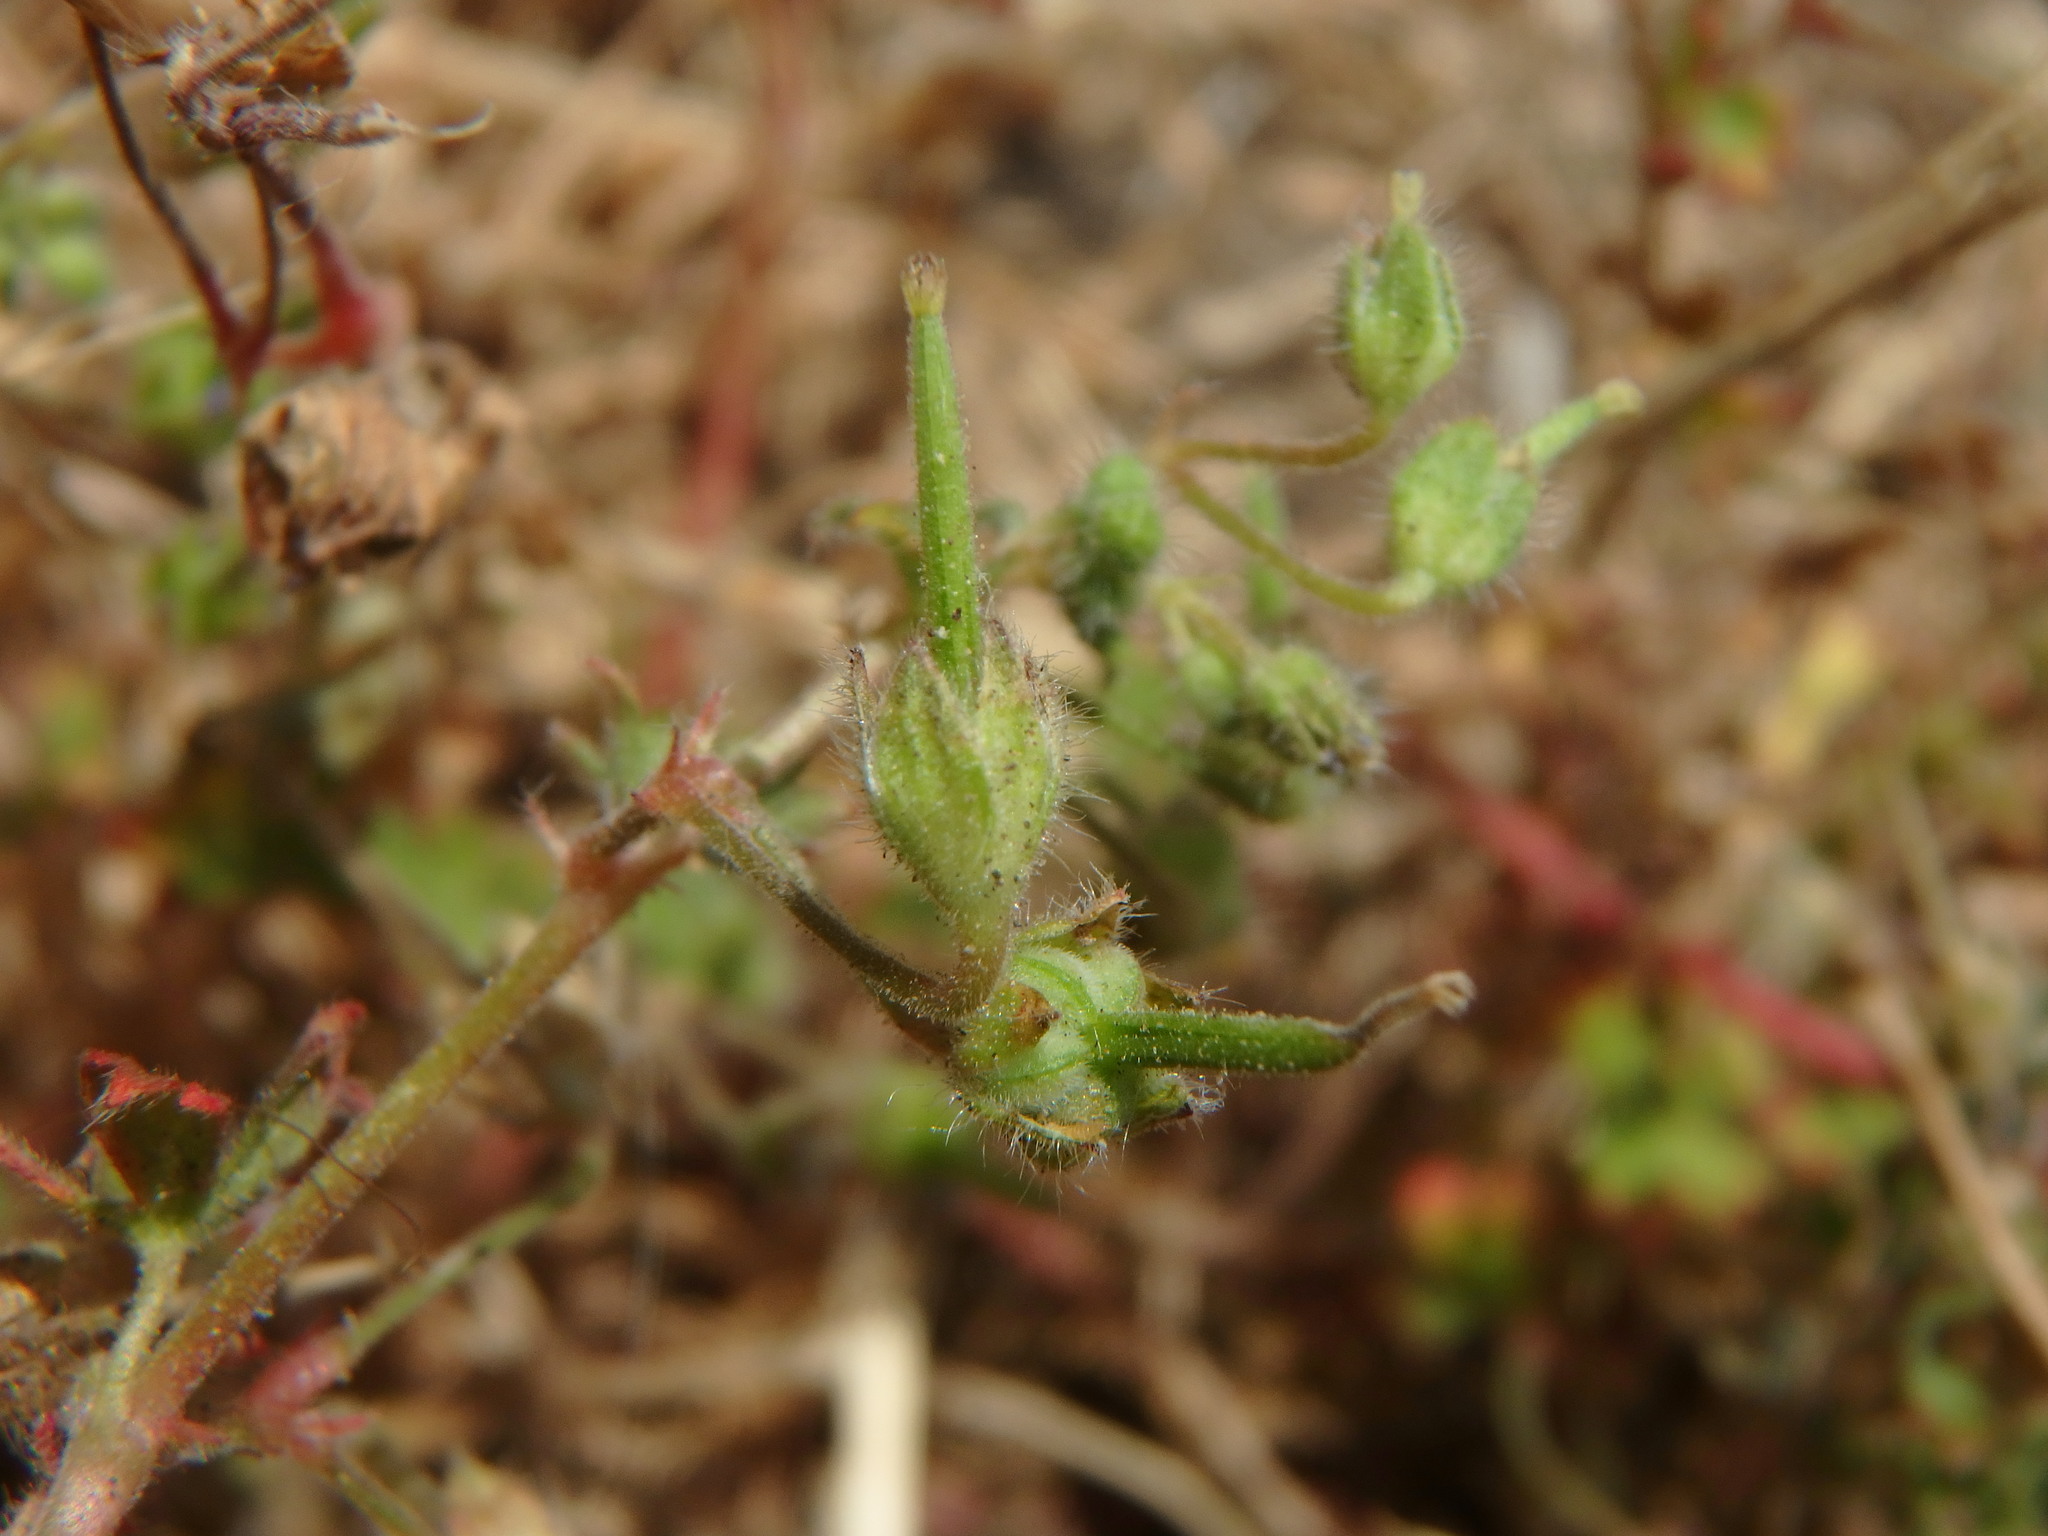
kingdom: Plantae
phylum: Tracheophyta
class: Magnoliopsida
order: Geraniales
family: Geraniaceae
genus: Geranium
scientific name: Geranium pusillum
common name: Small geranium
